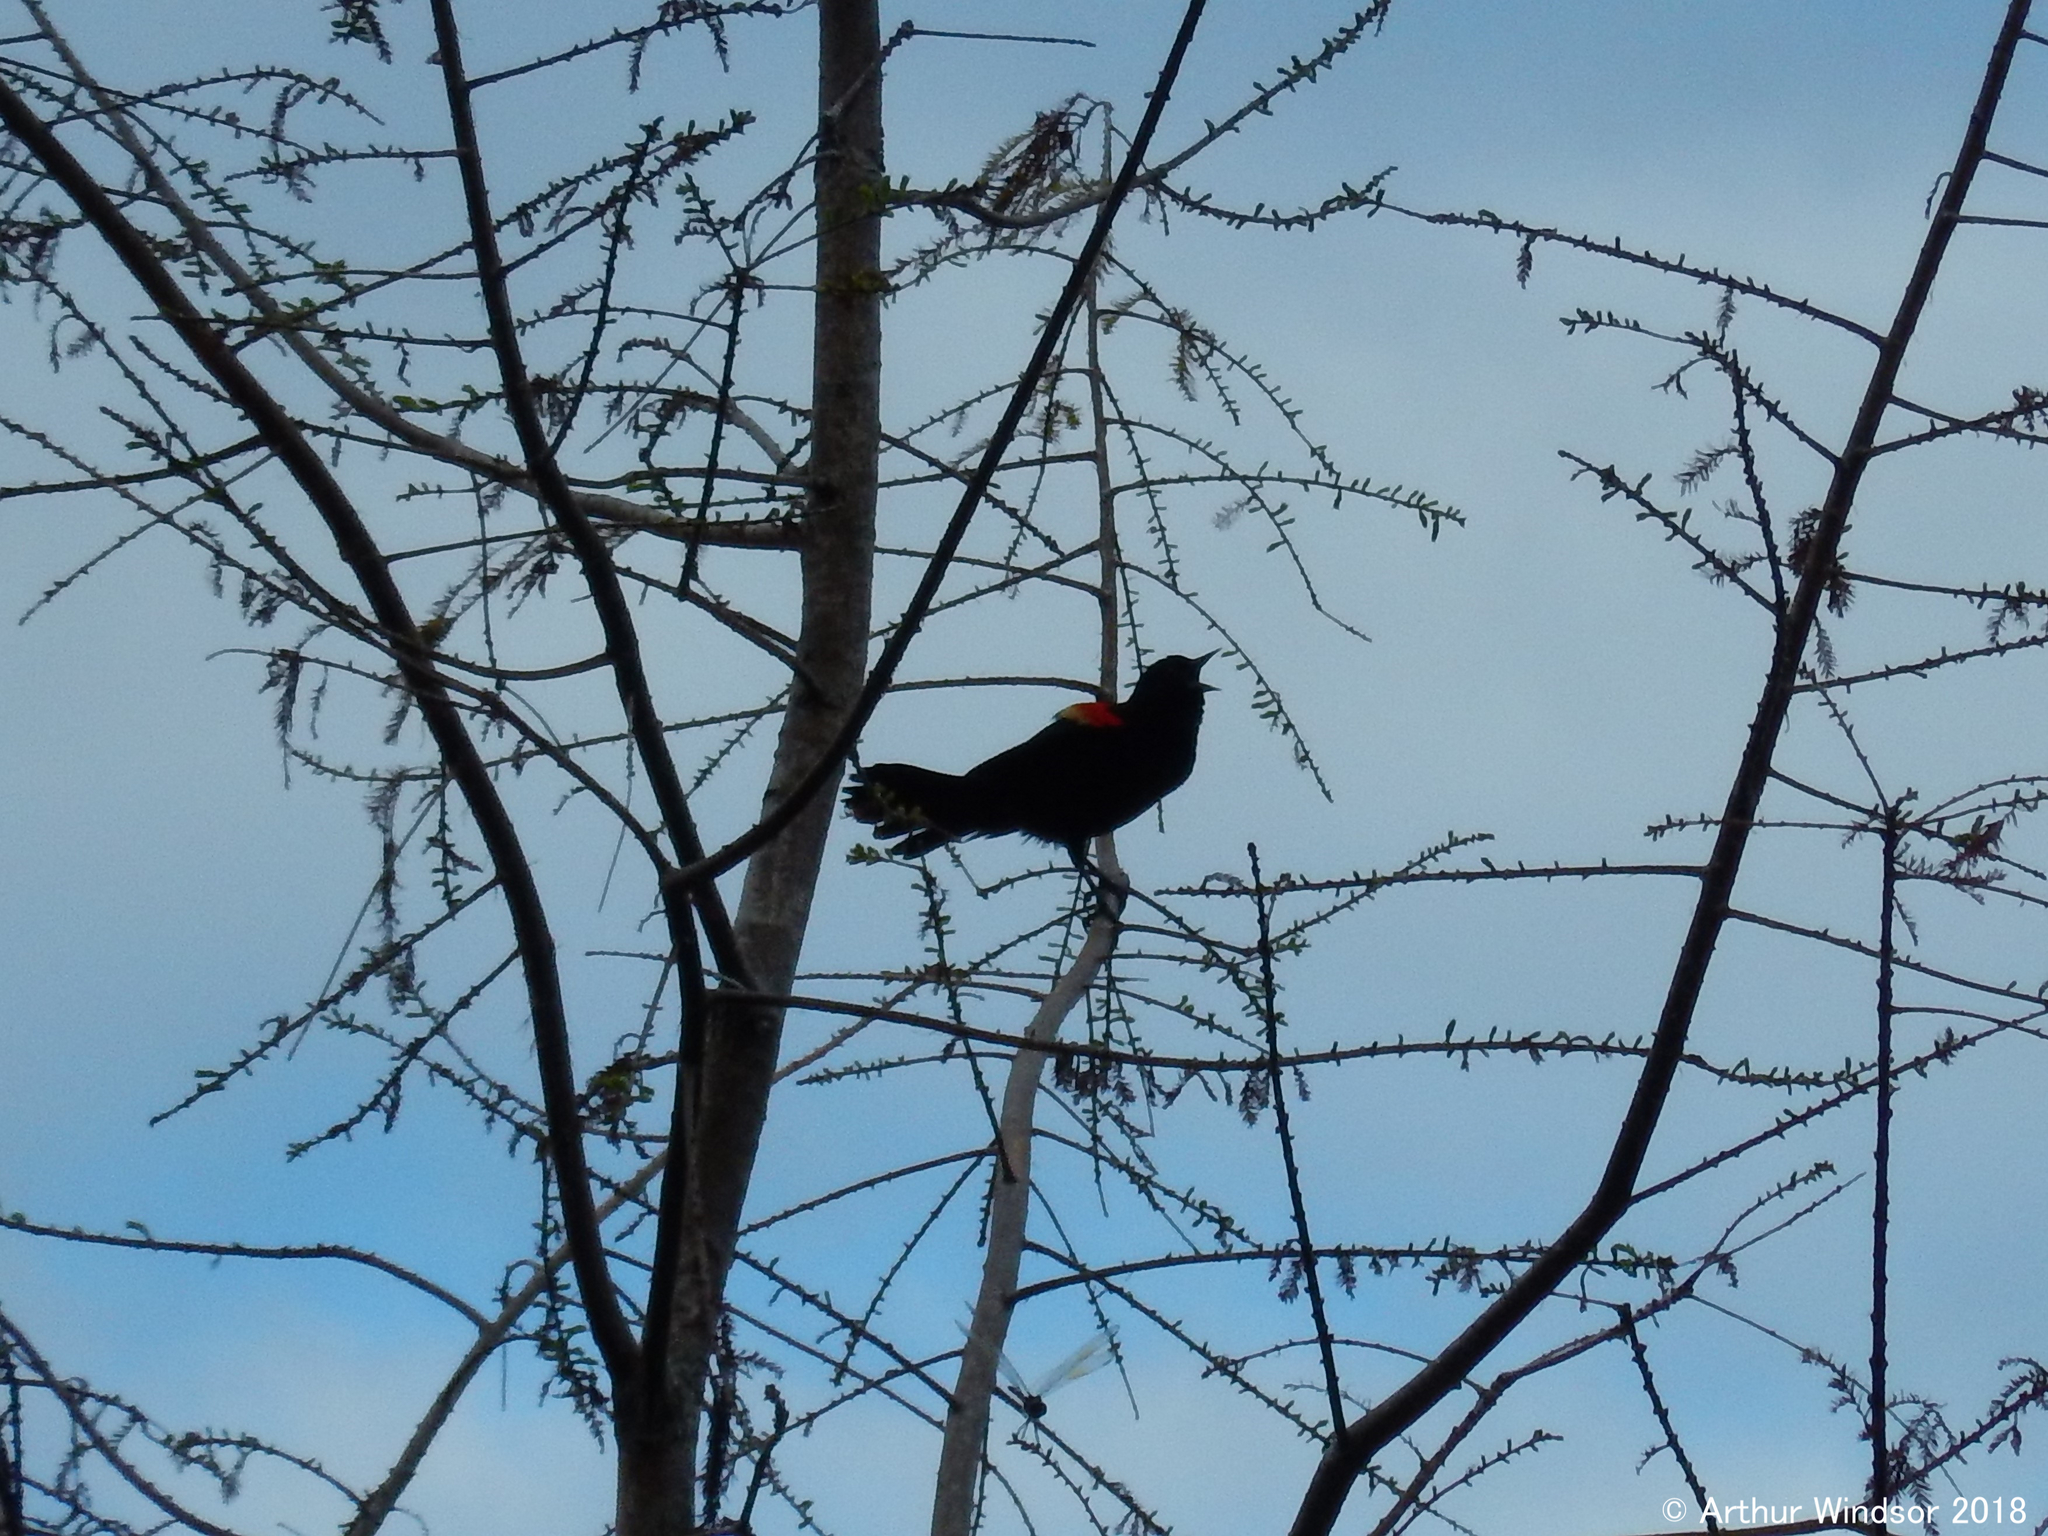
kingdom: Animalia
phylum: Chordata
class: Aves
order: Passeriformes
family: Icteridae
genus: Agelaius
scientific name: Agelaius phoeniceus
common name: Red-winged blackbird
